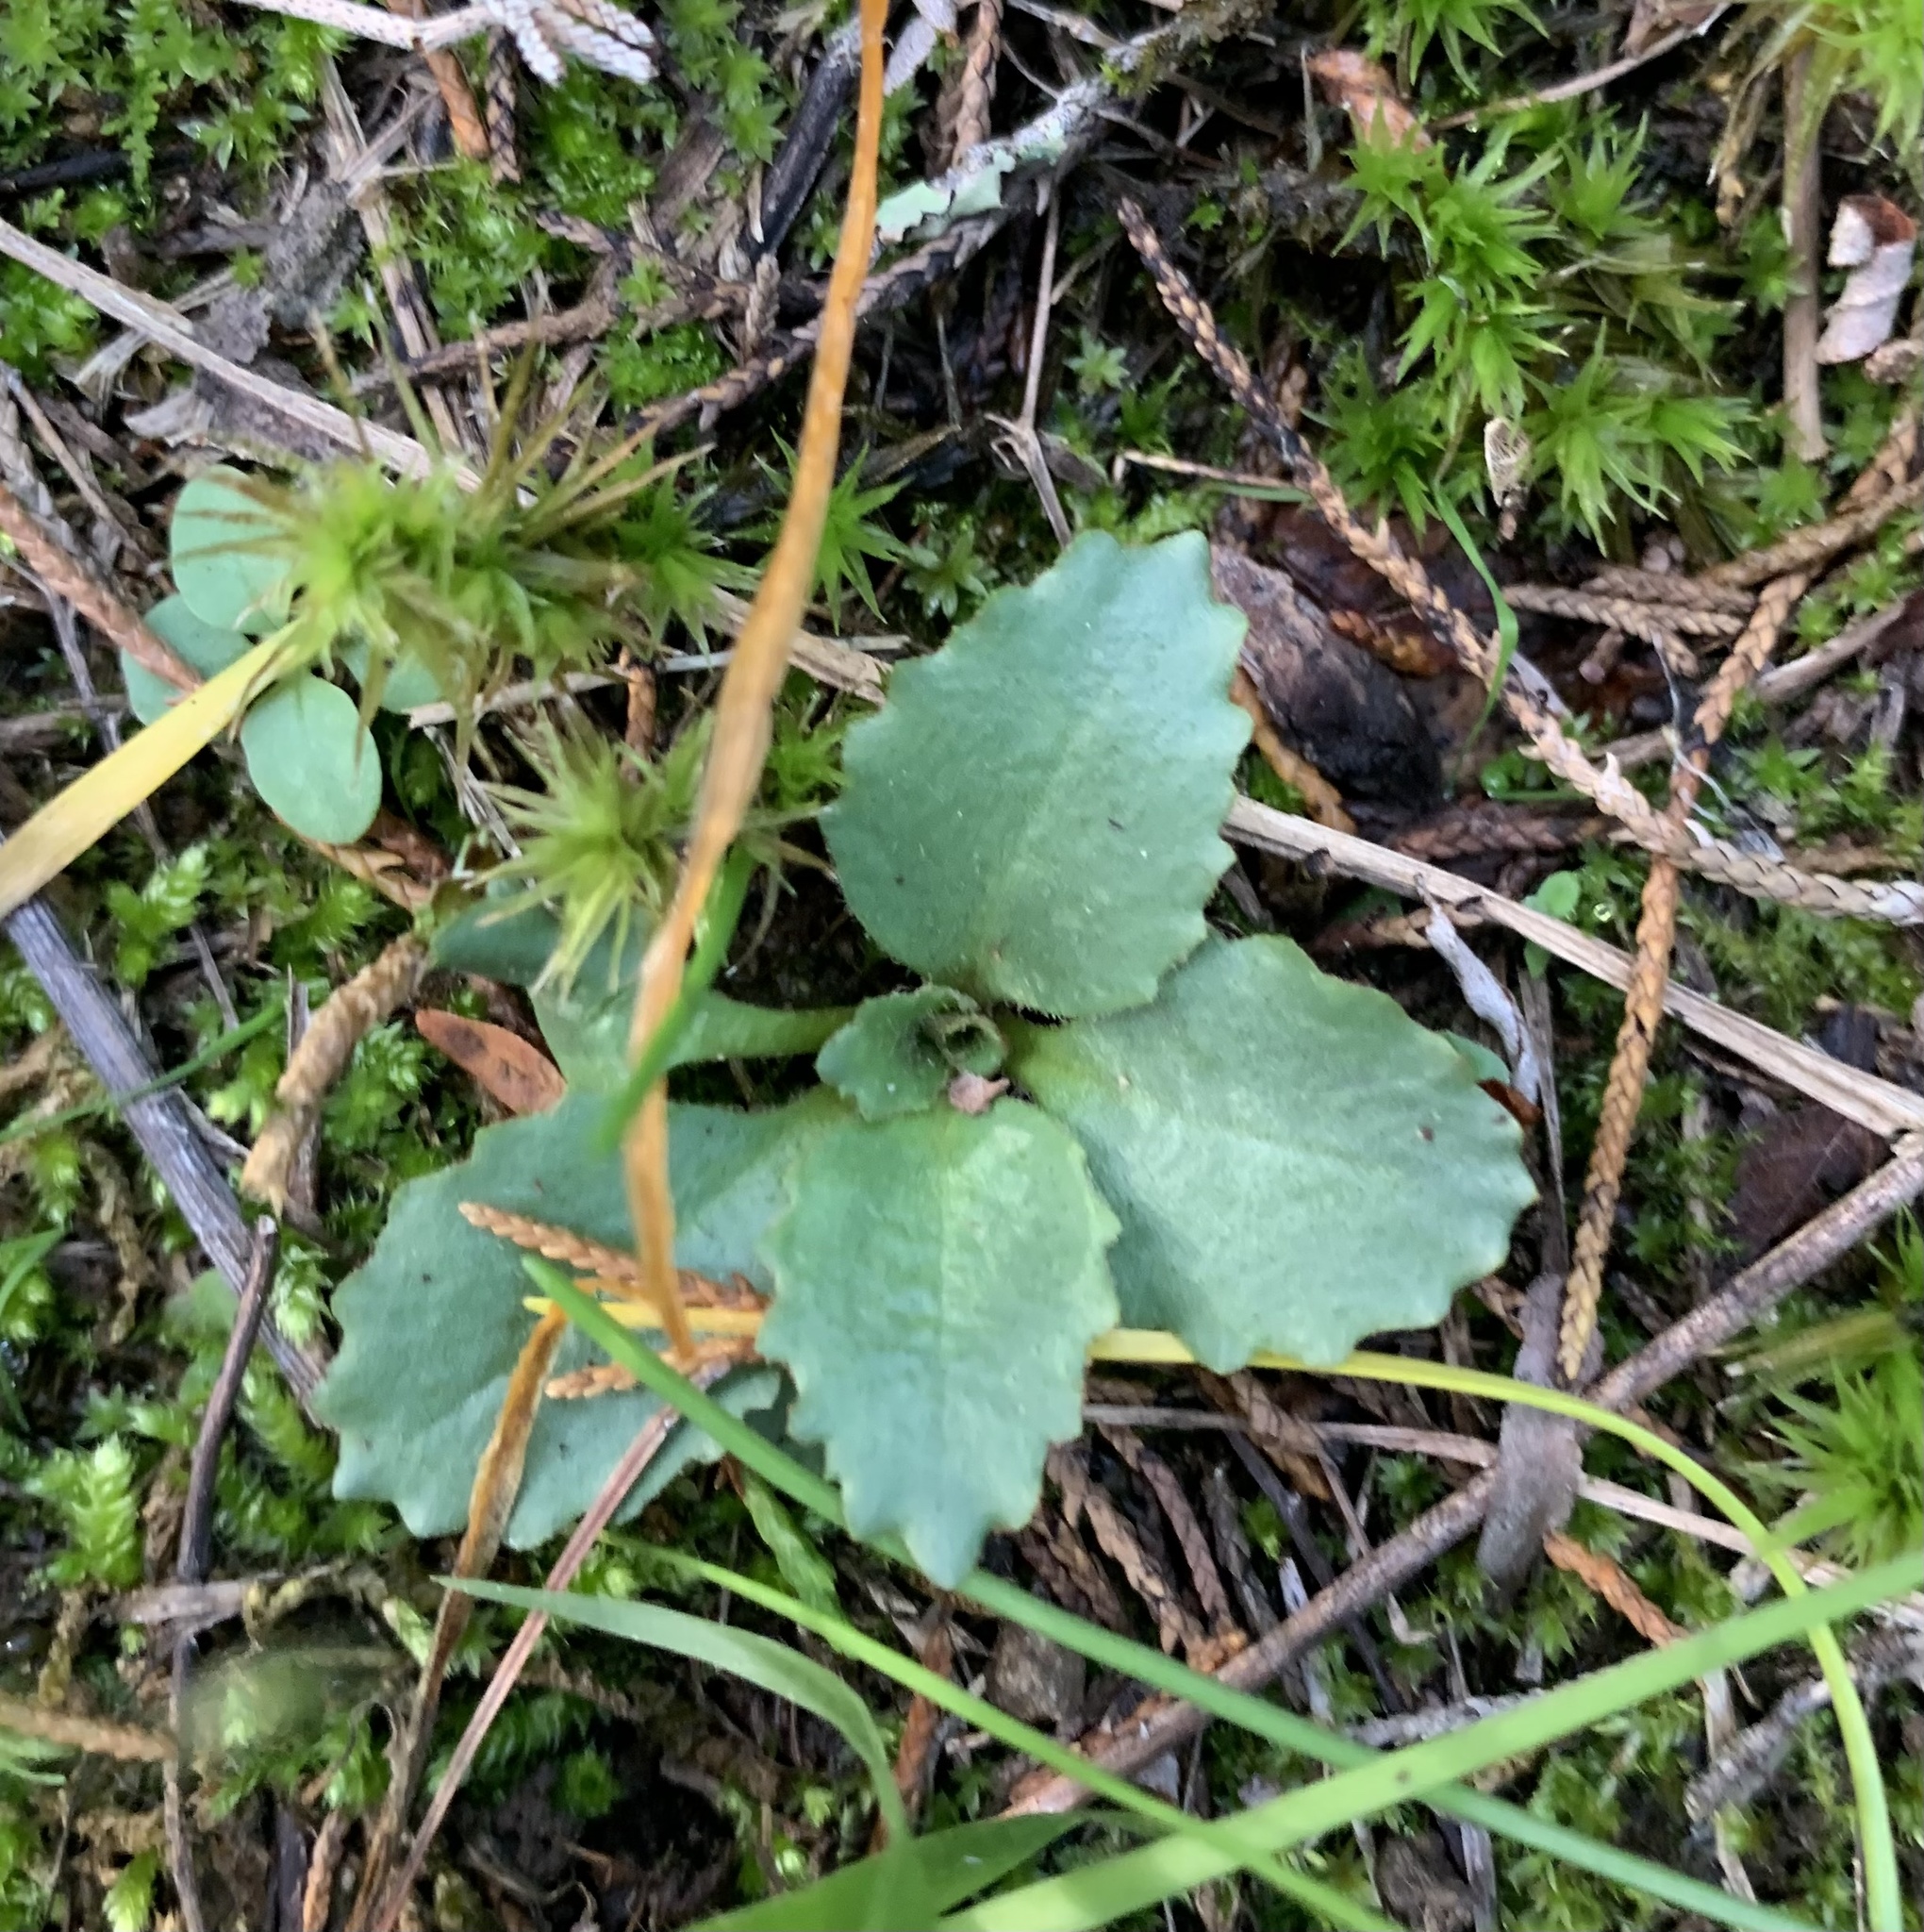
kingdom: Plantae
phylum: Tracheophyta
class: Magnoliopsida
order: Saxifragales
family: Saxifragaceae
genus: Micranthes
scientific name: Micranthes virginiensis
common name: Early saxifrage
